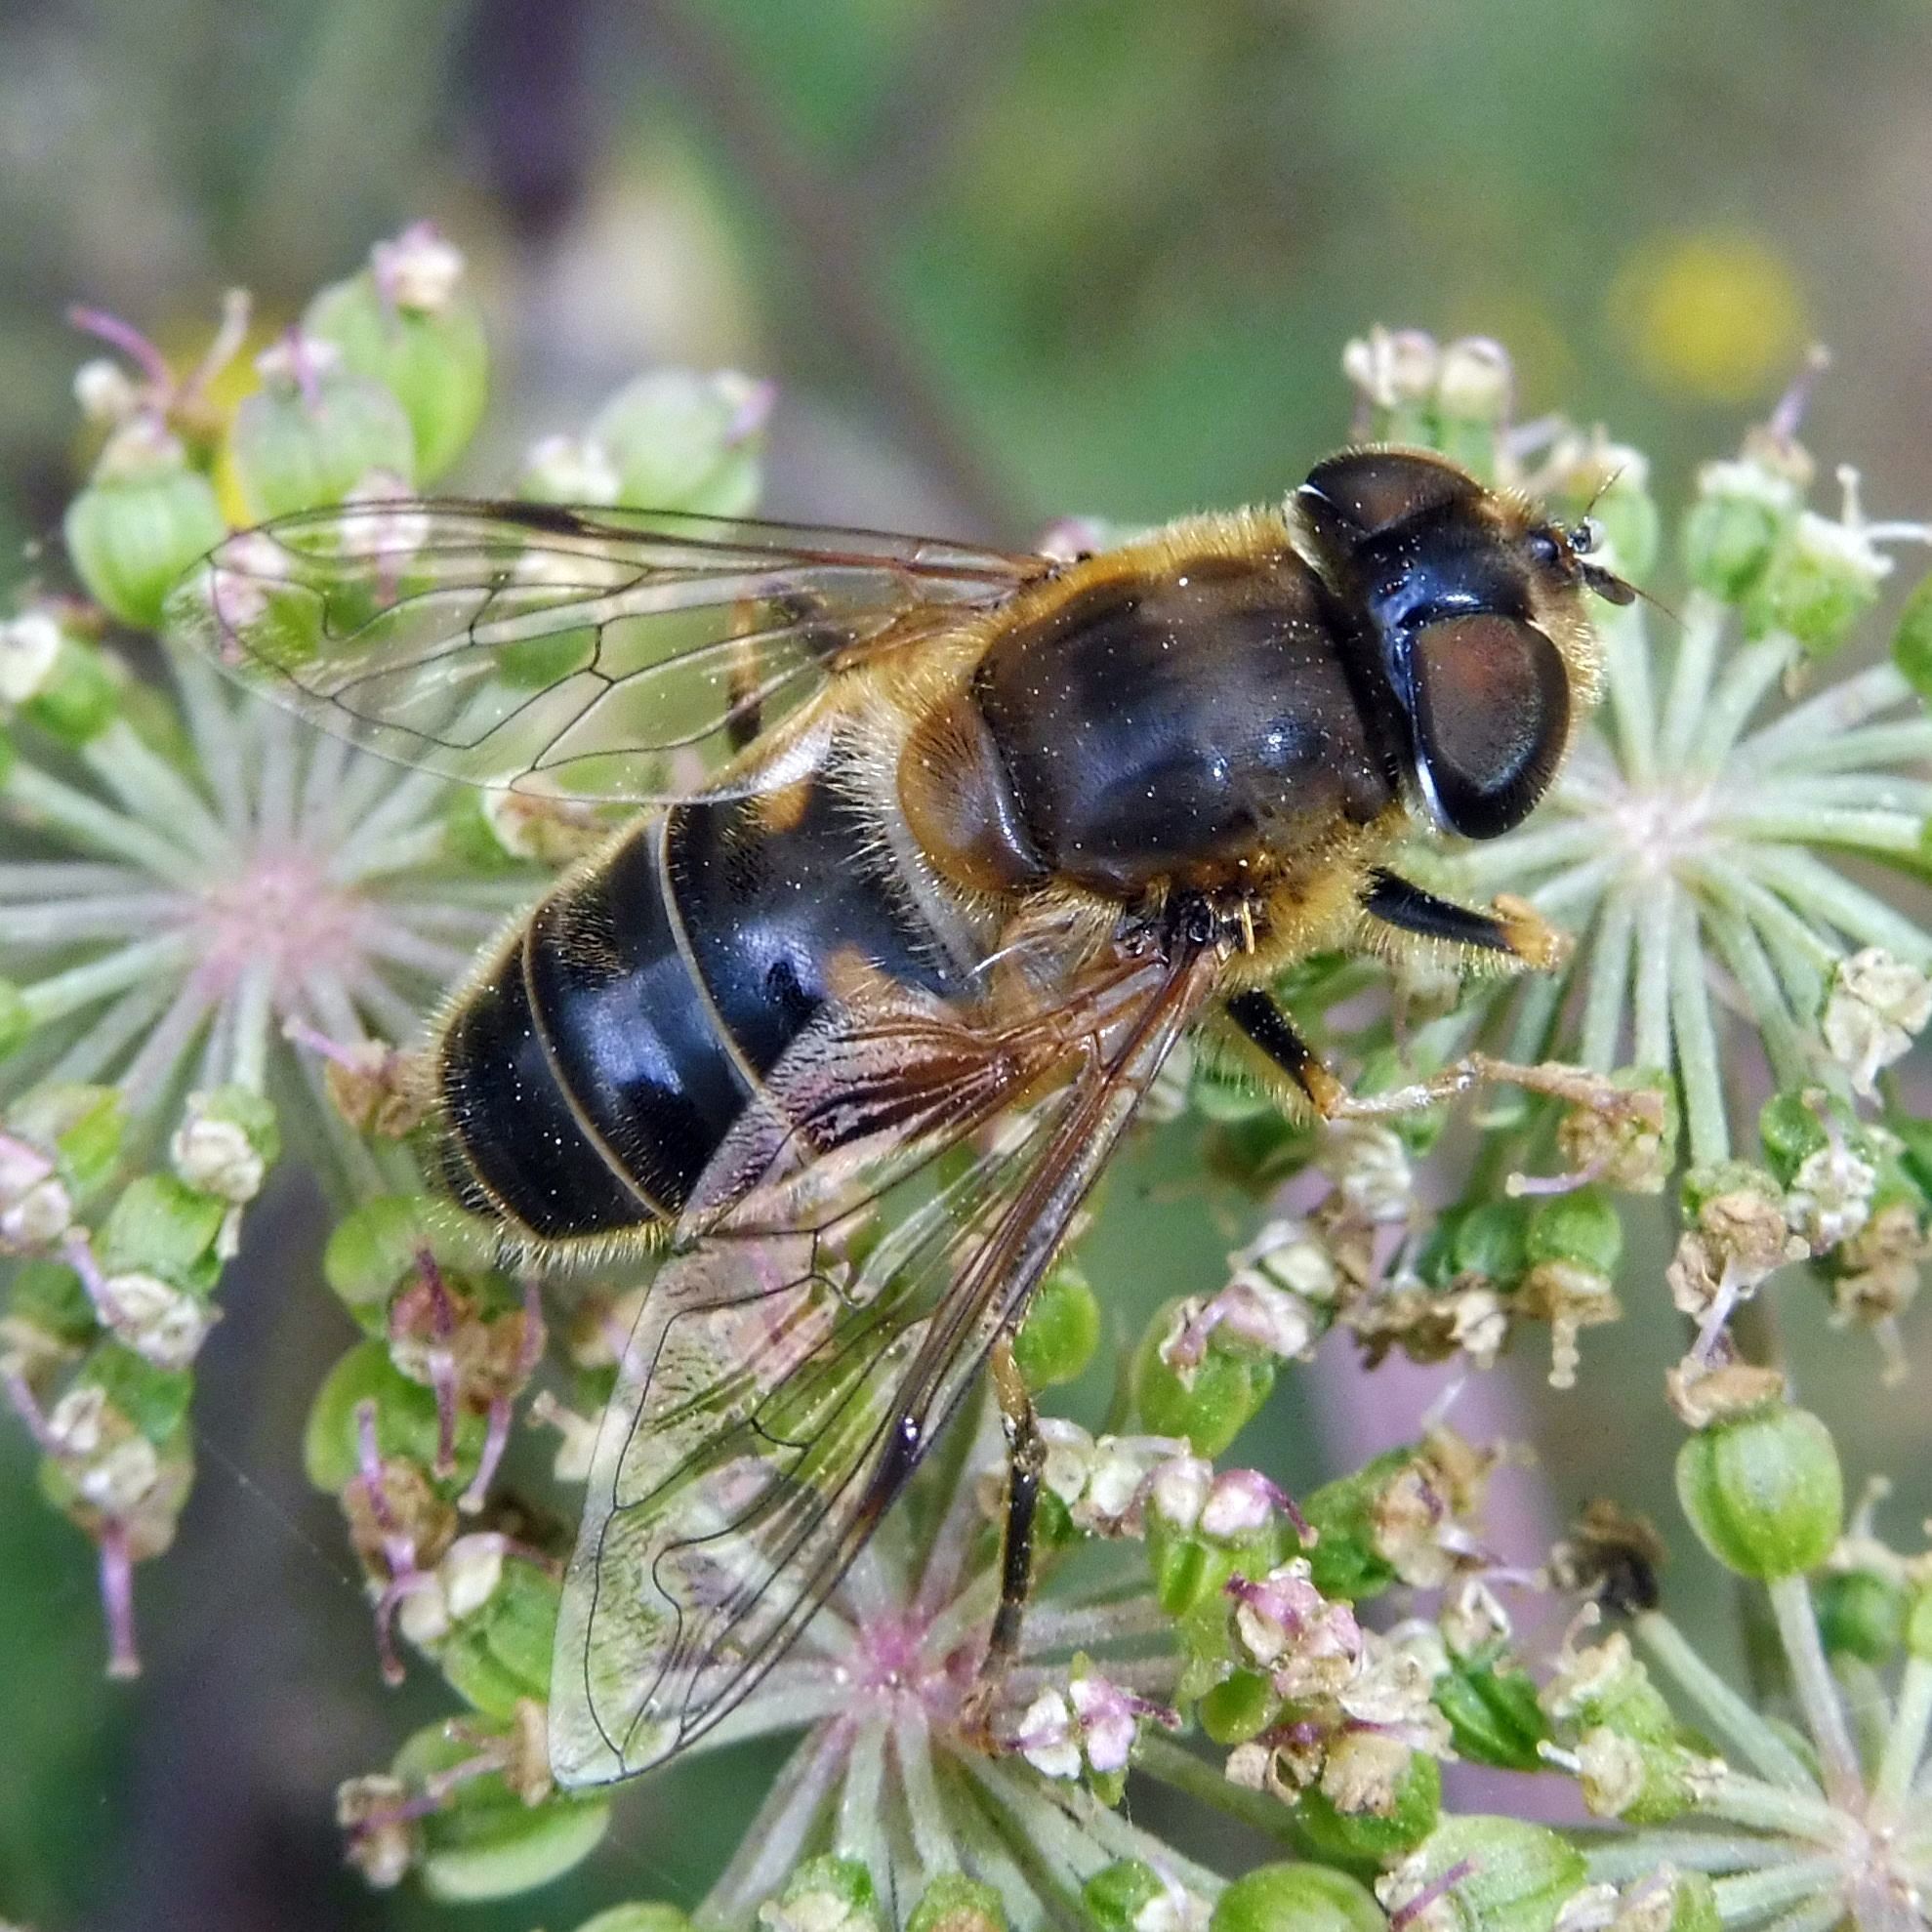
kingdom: Animalia
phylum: Arthropoda
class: Insecta
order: Diptera
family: Syrphidae
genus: Eristalis
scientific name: Eristalis pertinax
